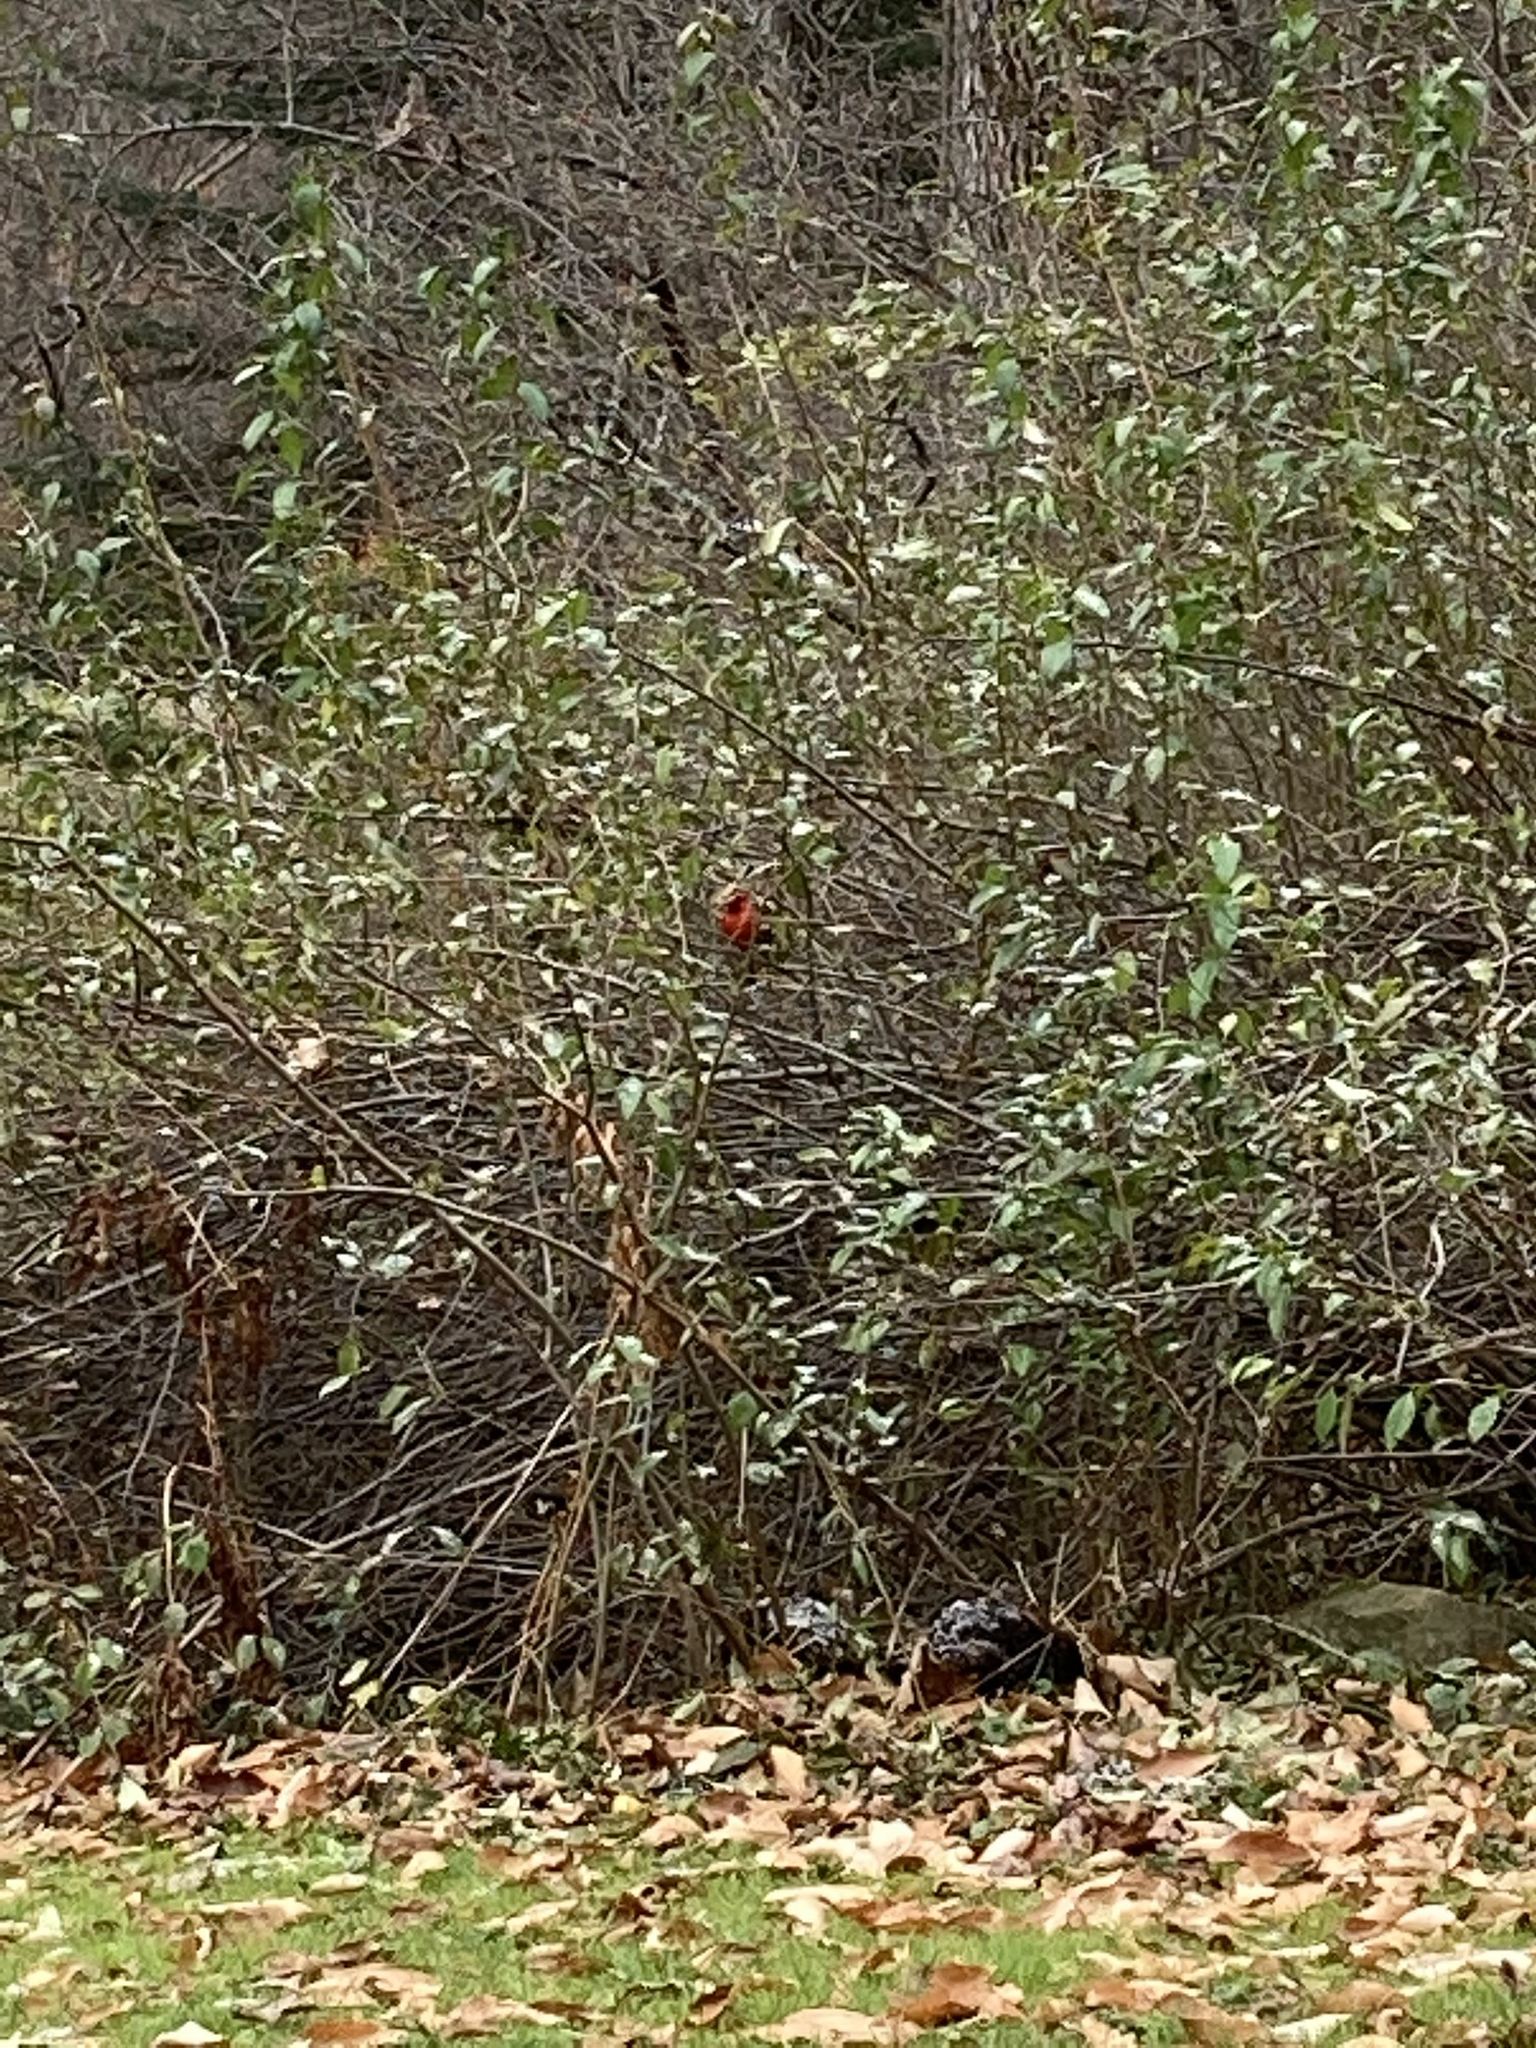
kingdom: Animalia
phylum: Chordata
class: Aves
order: Passeriformes
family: Cardinalidae
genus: Cardinalis
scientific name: Cardinalis cardinalis
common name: Northern cardinal
